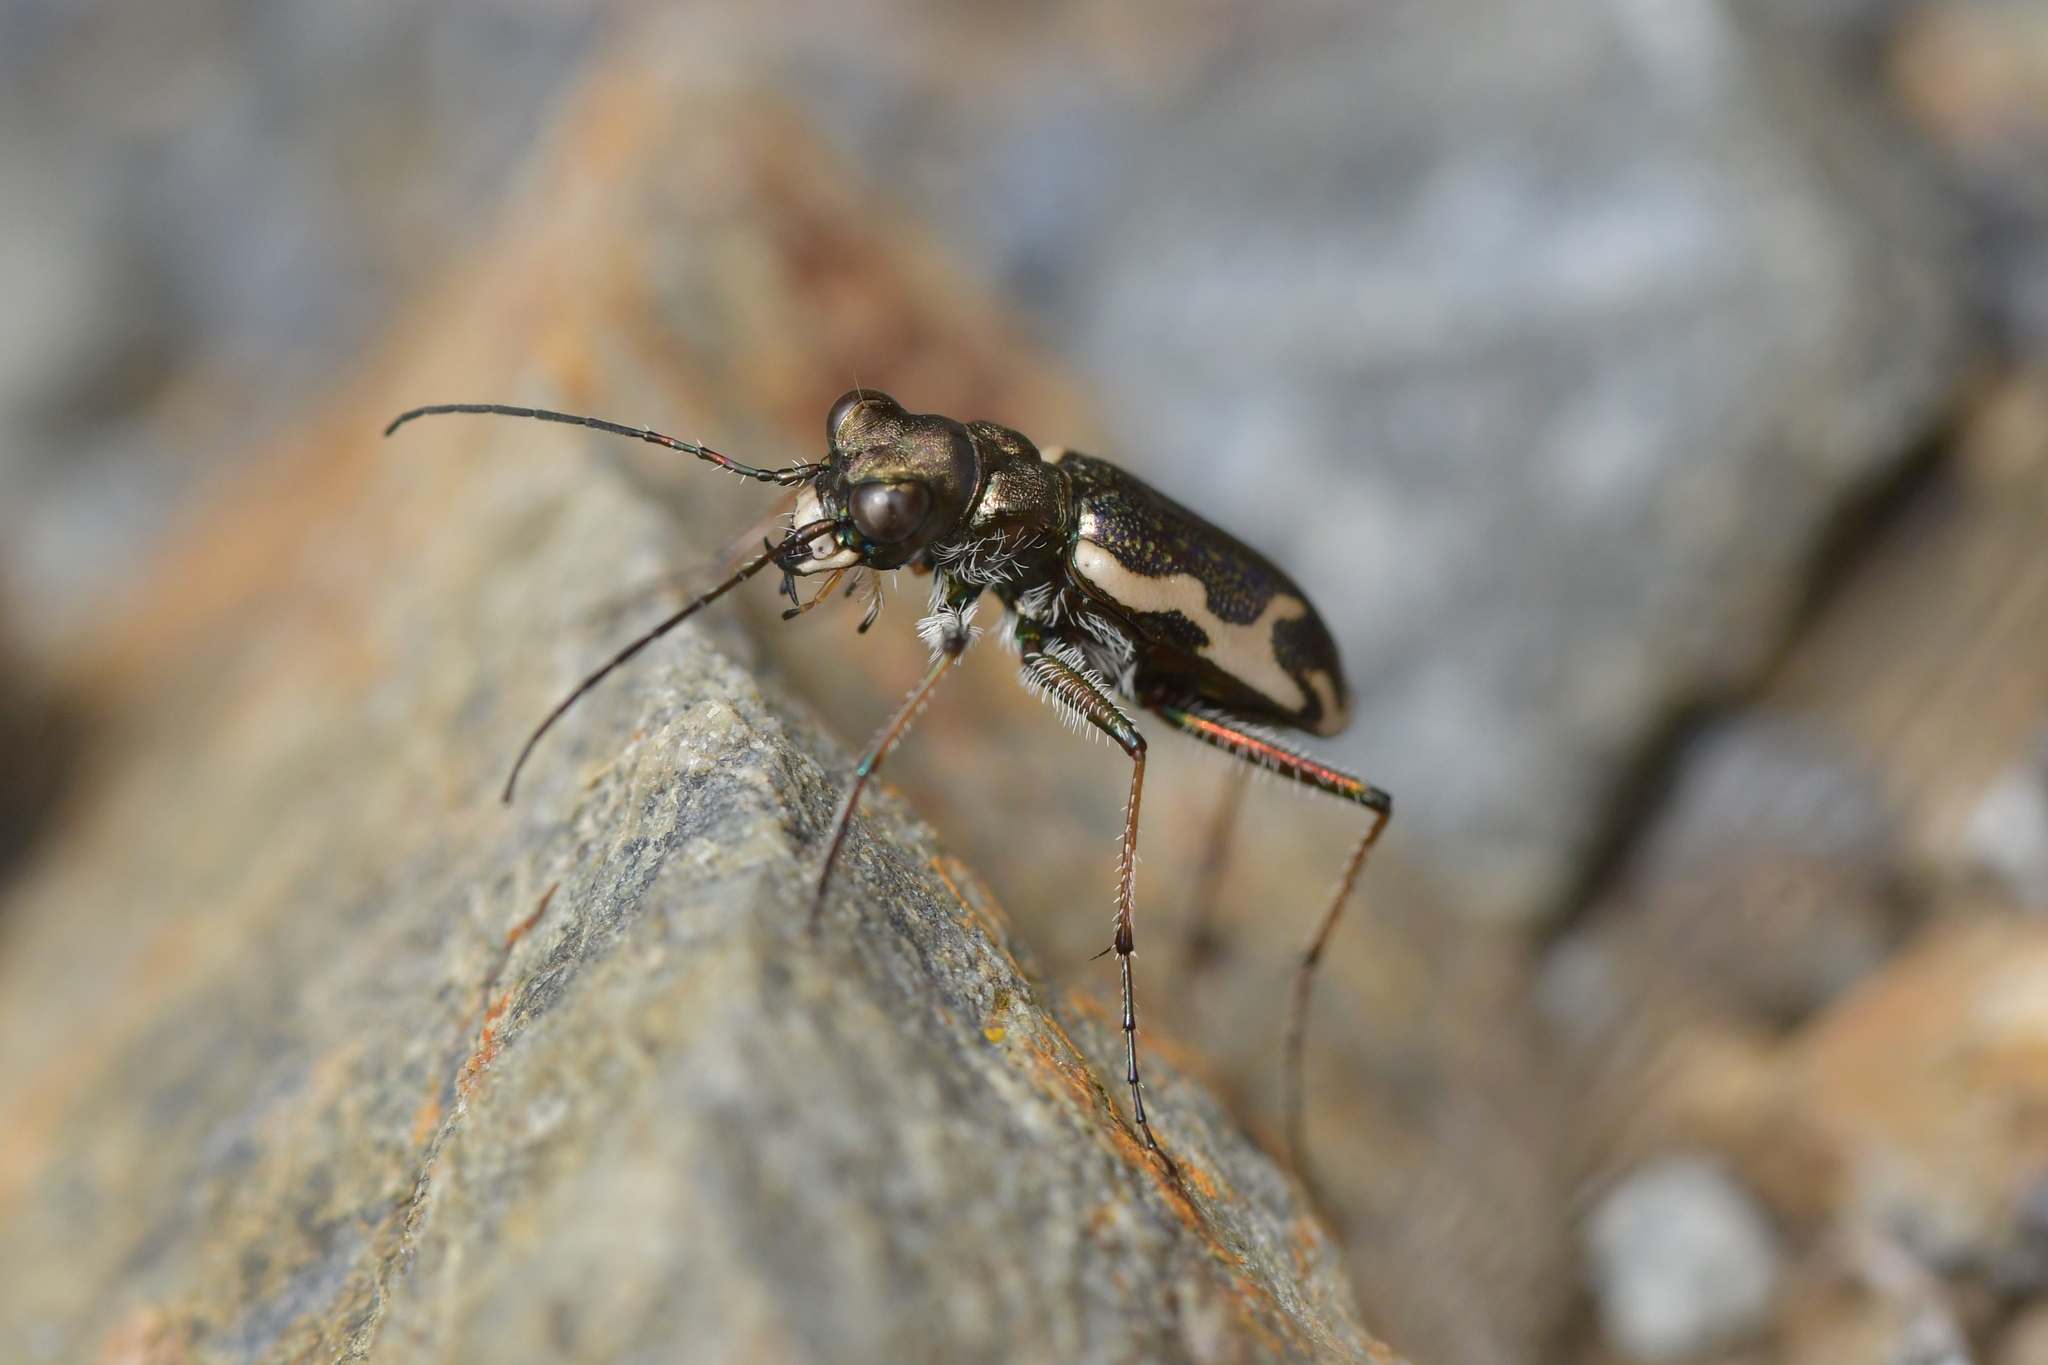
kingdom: Animalia
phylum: Arthropoda
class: Insecta
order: Coleoptera
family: Carabidae
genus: Neocicindela
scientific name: Neocicindela tuberculata
